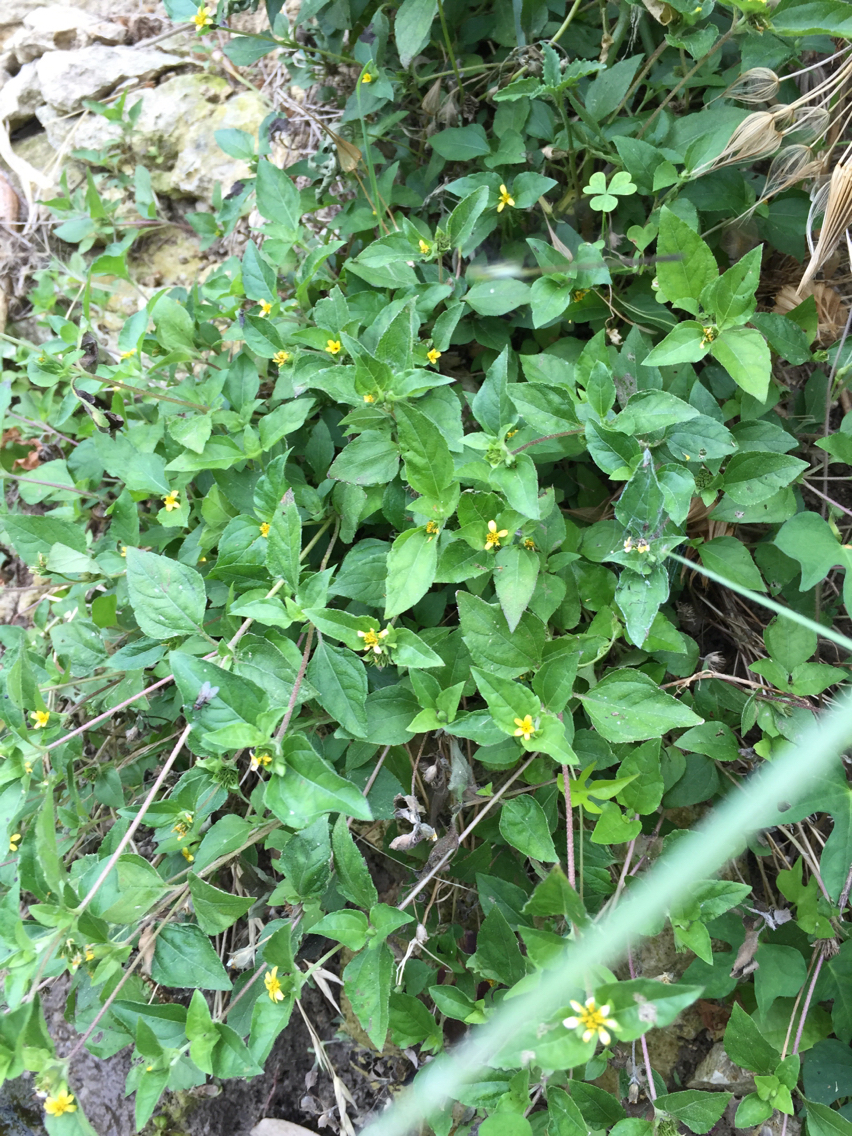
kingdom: Plantae
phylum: Tracheophyta
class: Magnoliopsida
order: Asterales
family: Asteraceae
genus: Calyptocarpus
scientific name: Calyptocarpus vialis
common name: Straggler daisy
